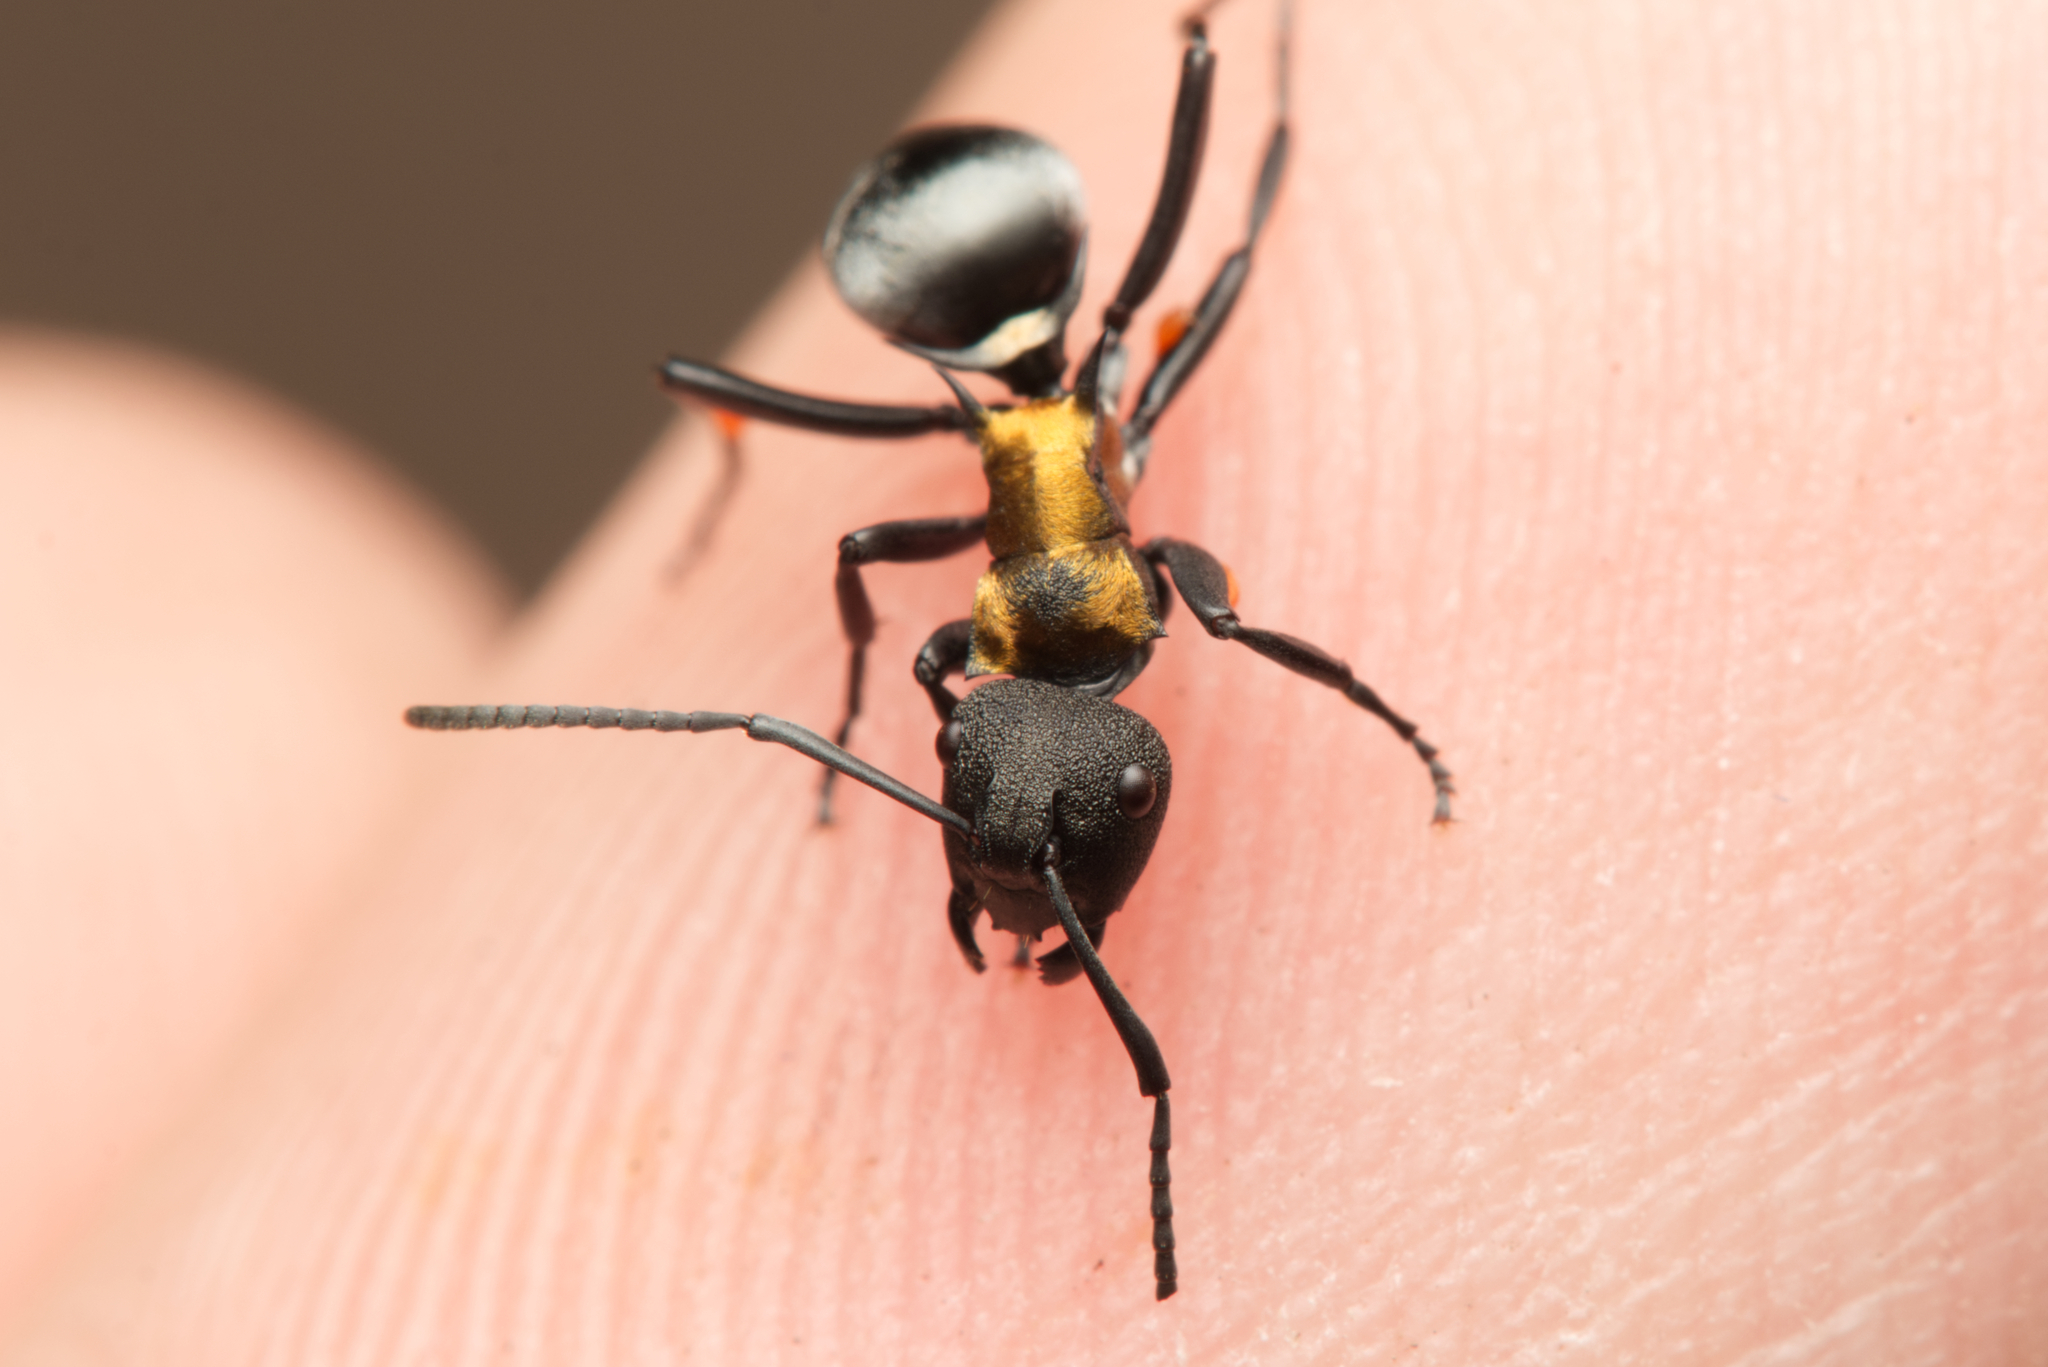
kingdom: Animalia
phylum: Arthropoda
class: Insecta
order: Hymenoptera
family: Formicidae
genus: Polyrhachis
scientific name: Polyrhachis ornata
